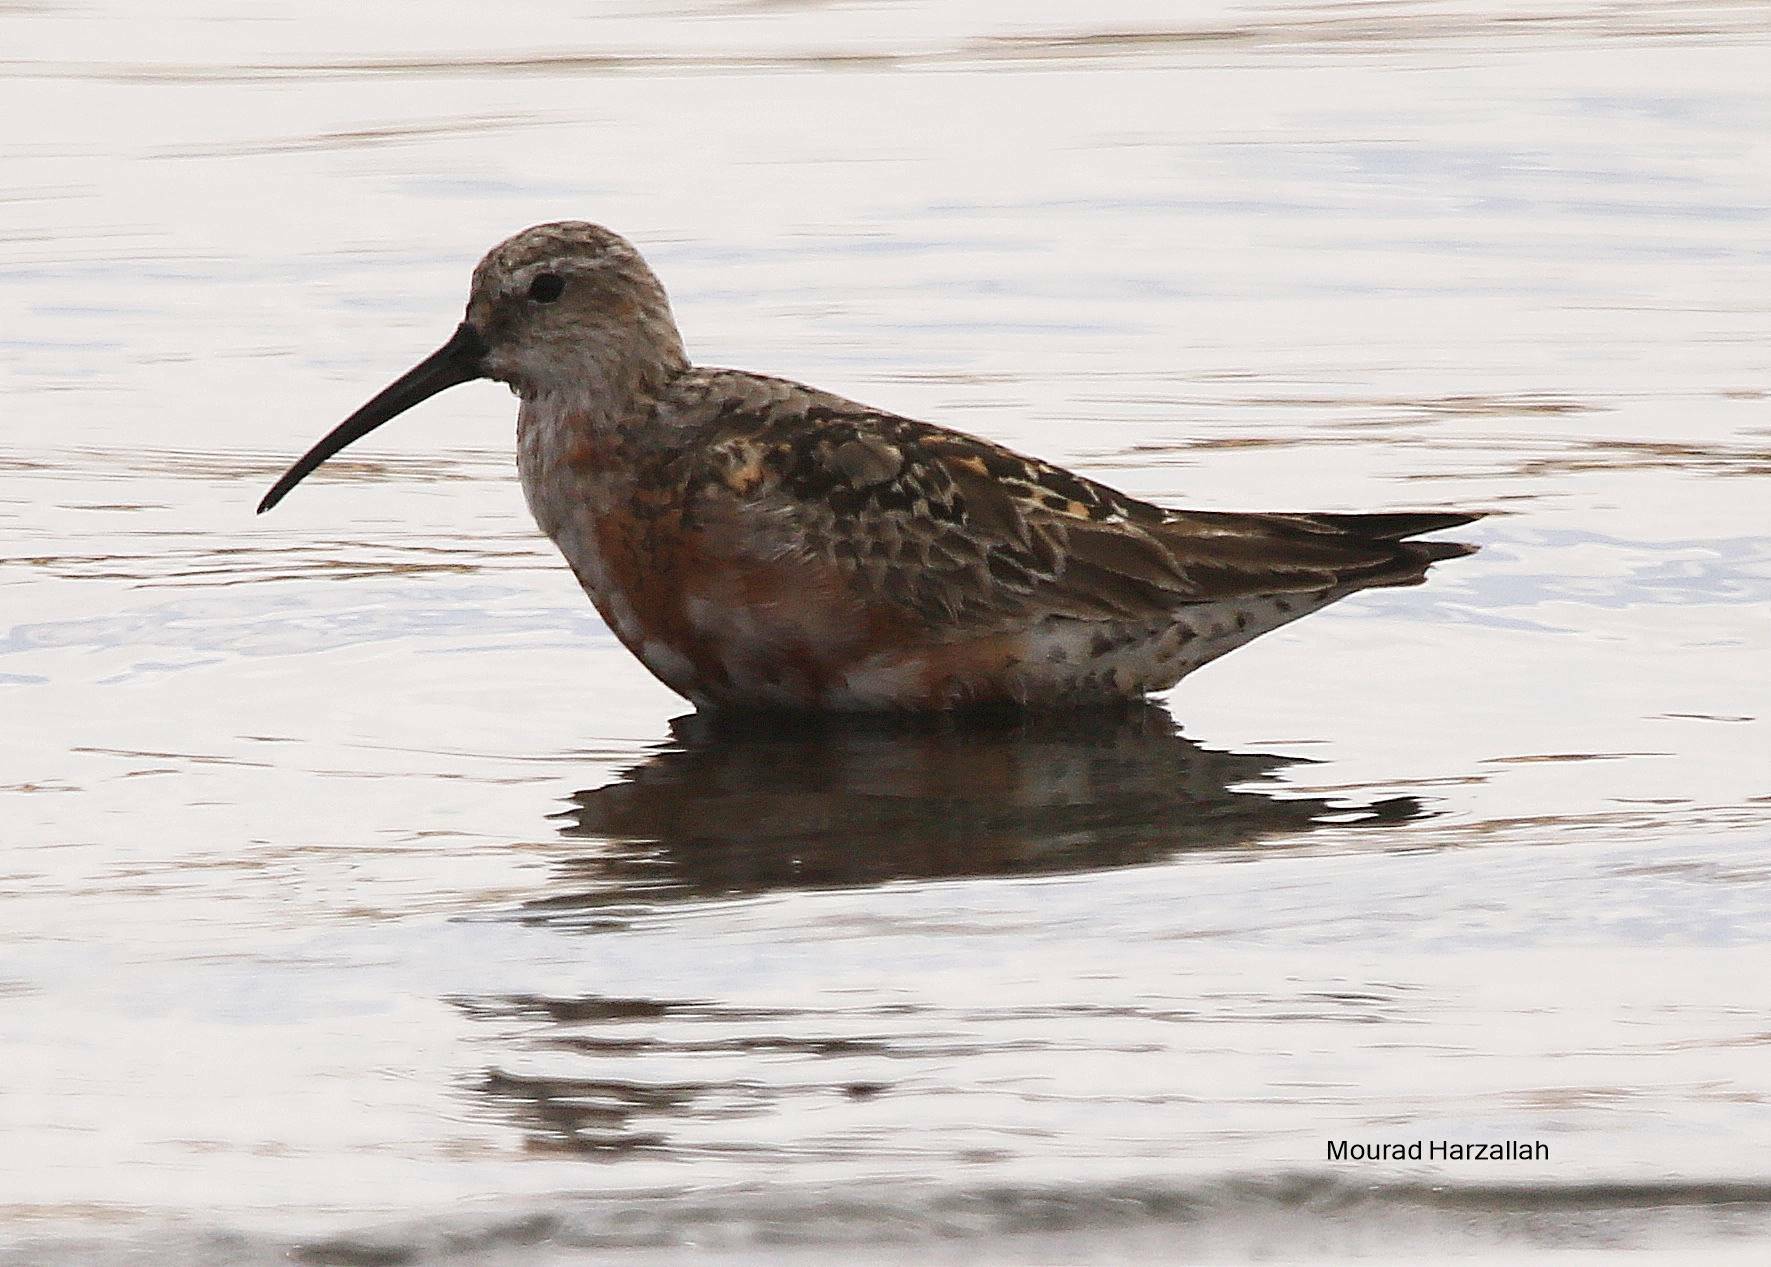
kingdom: Animalia
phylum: Chordata
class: Aves
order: Charadriiformes
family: Scolopacidae
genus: Calidris
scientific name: Calidris ferruginea
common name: Curlew sandpiper
